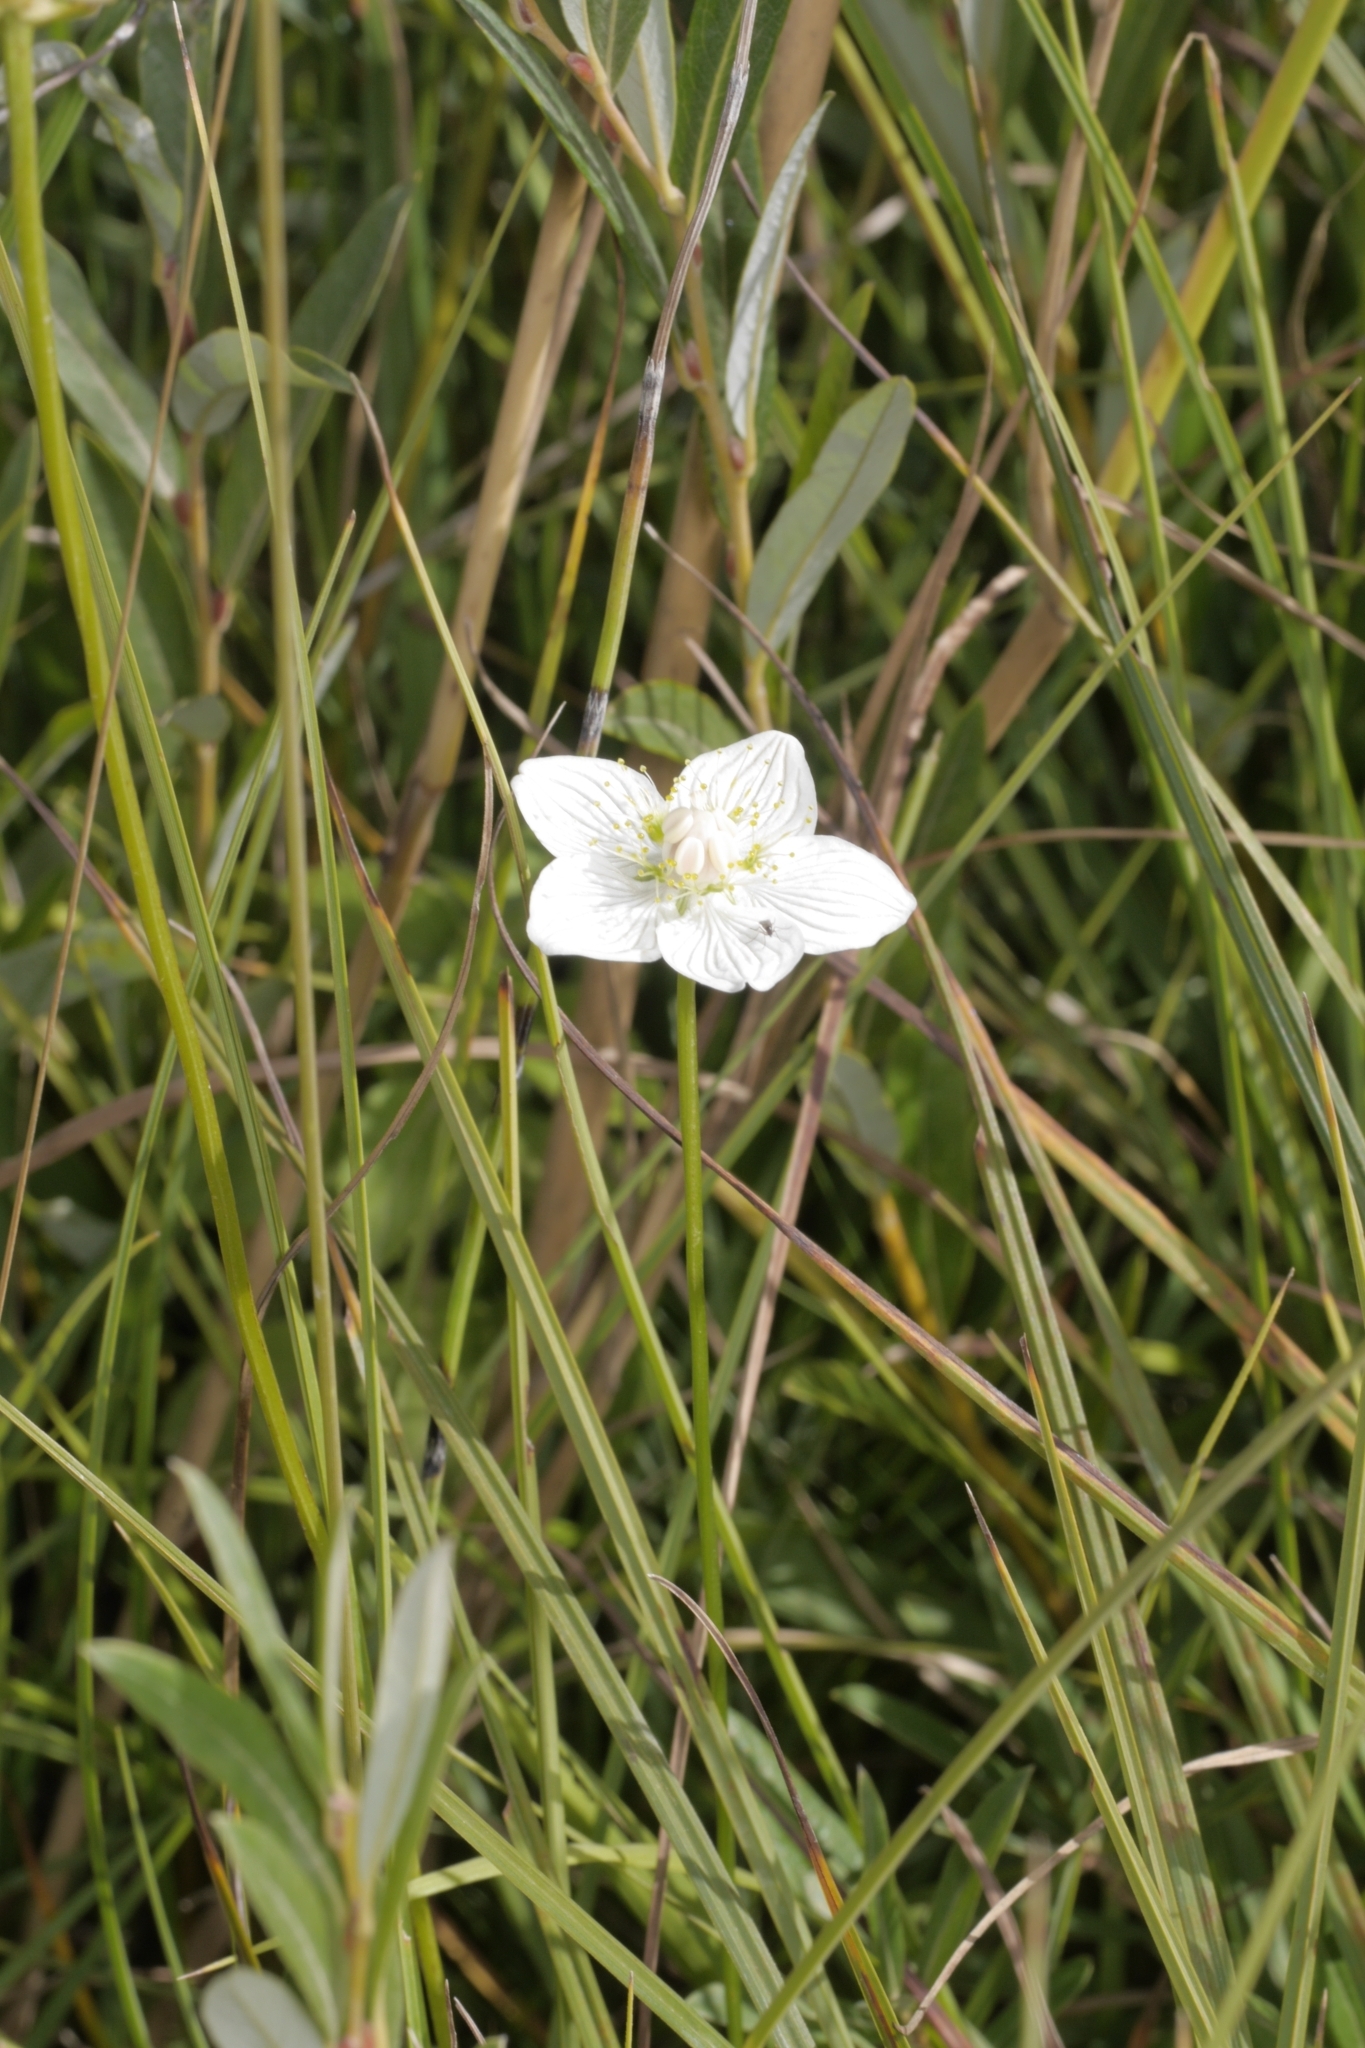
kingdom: Plantae
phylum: Tracheophyta
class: Magnoliopsida
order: Celastrales
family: Parnassiaceae
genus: Parnassia
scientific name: Parnassia palustris
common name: Grass-of-parnassus
